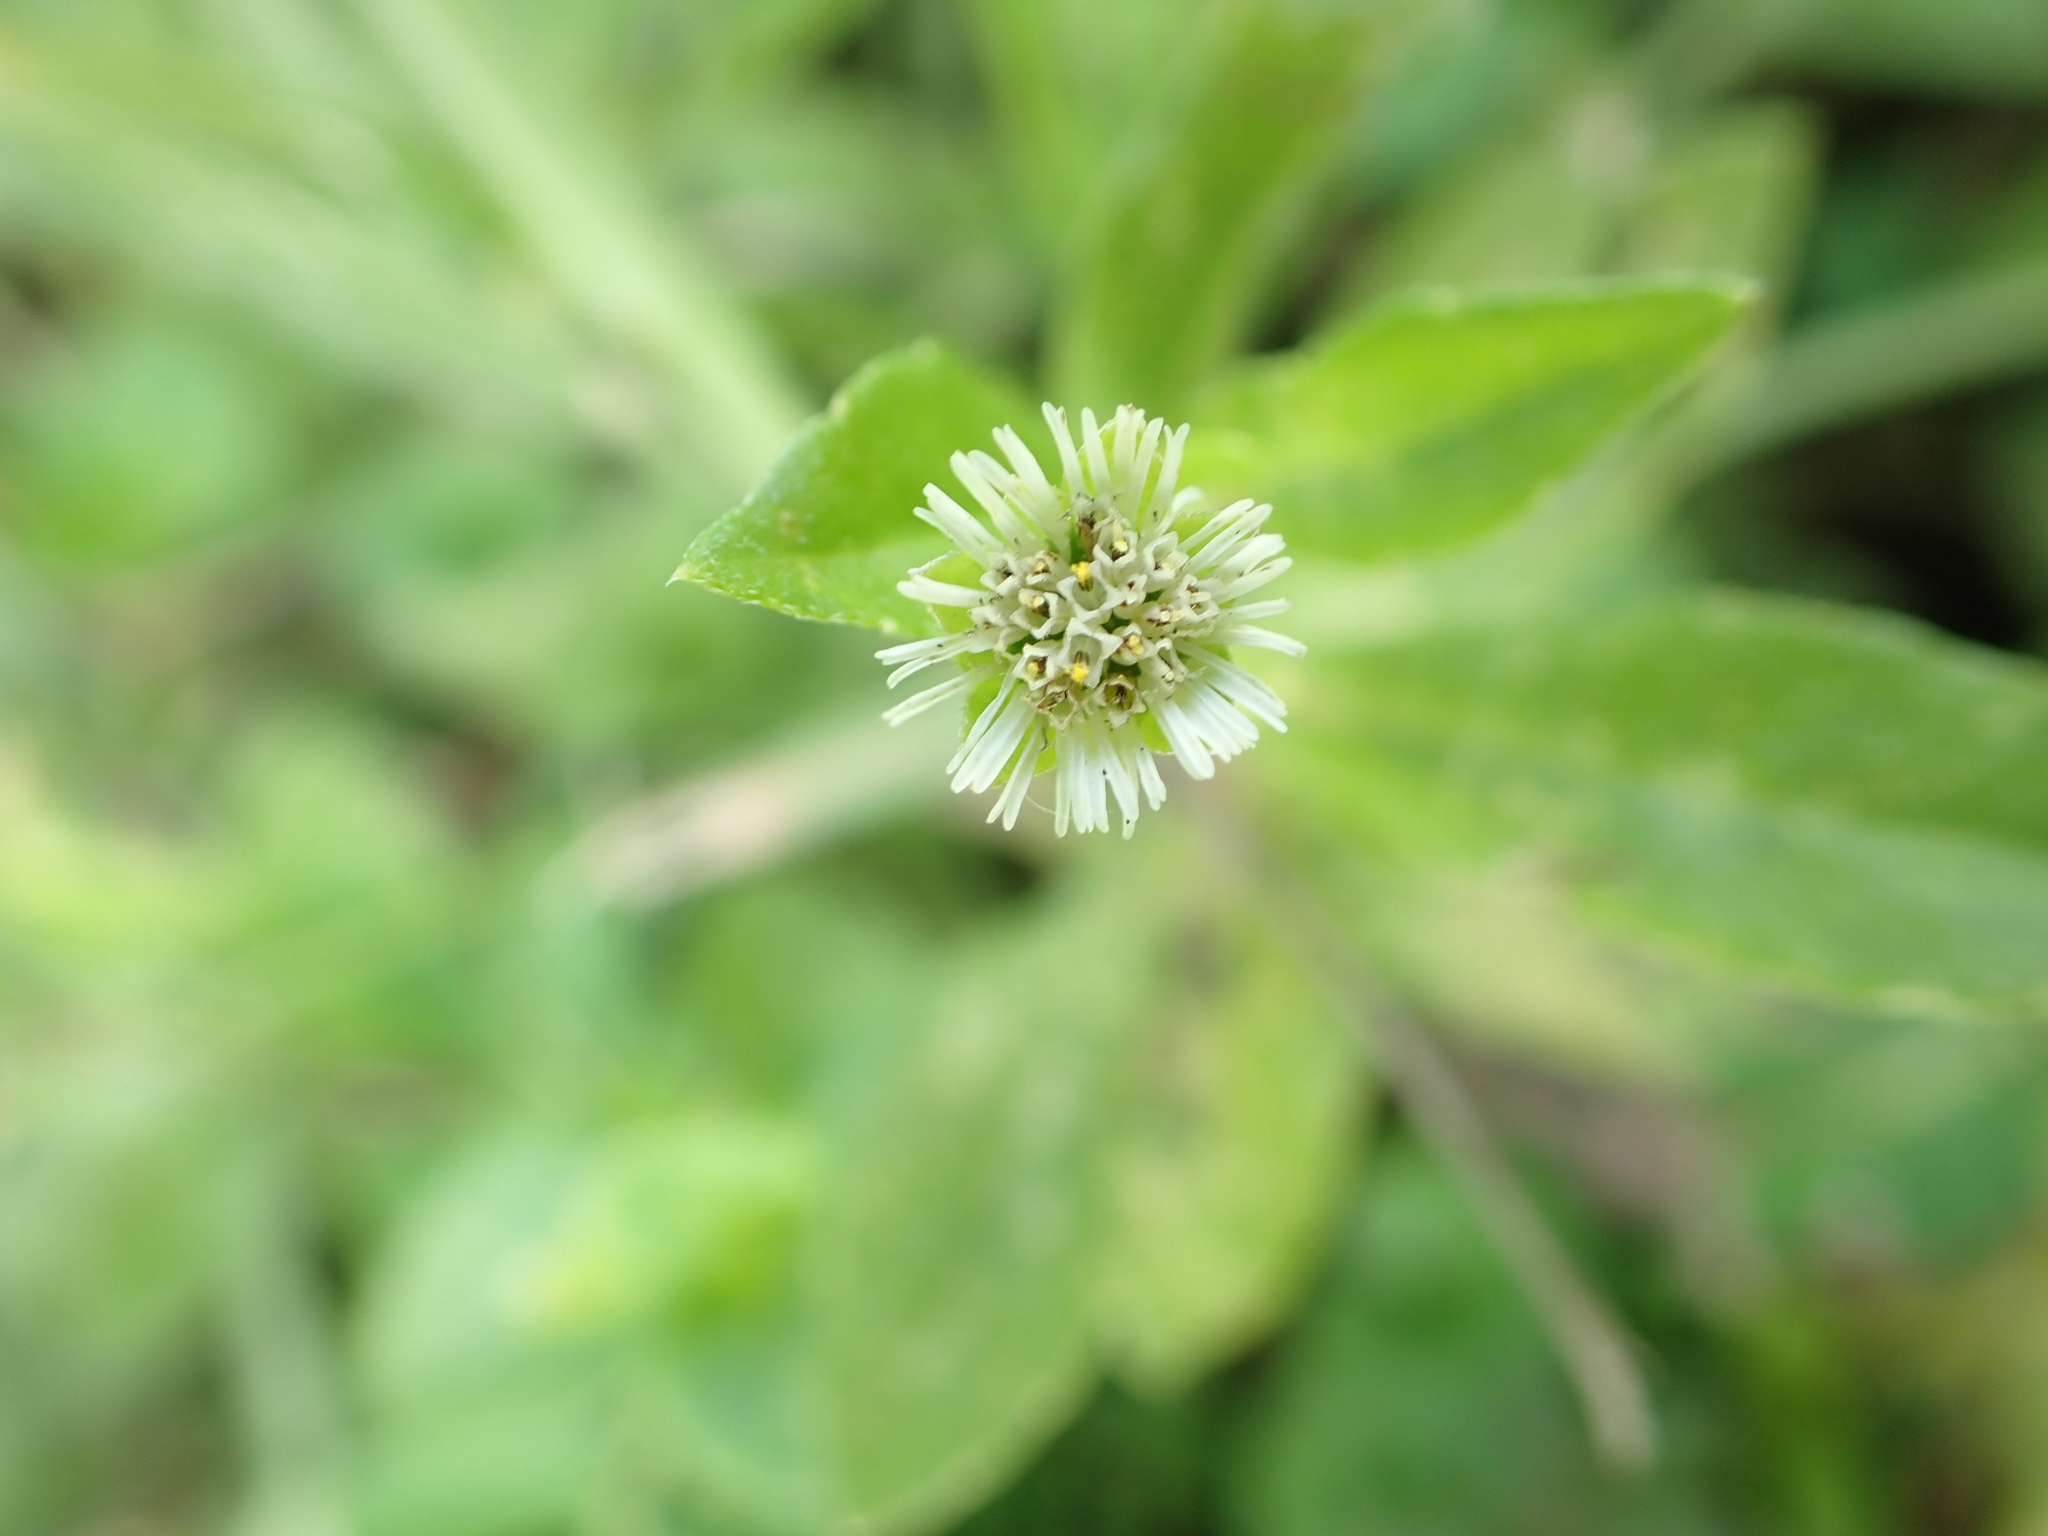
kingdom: Plantae
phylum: Tracheophyta
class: Magnoliopsida
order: Asterales
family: Asteraceae
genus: Eclipta
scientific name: Eclipta prostrata
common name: False daisy
